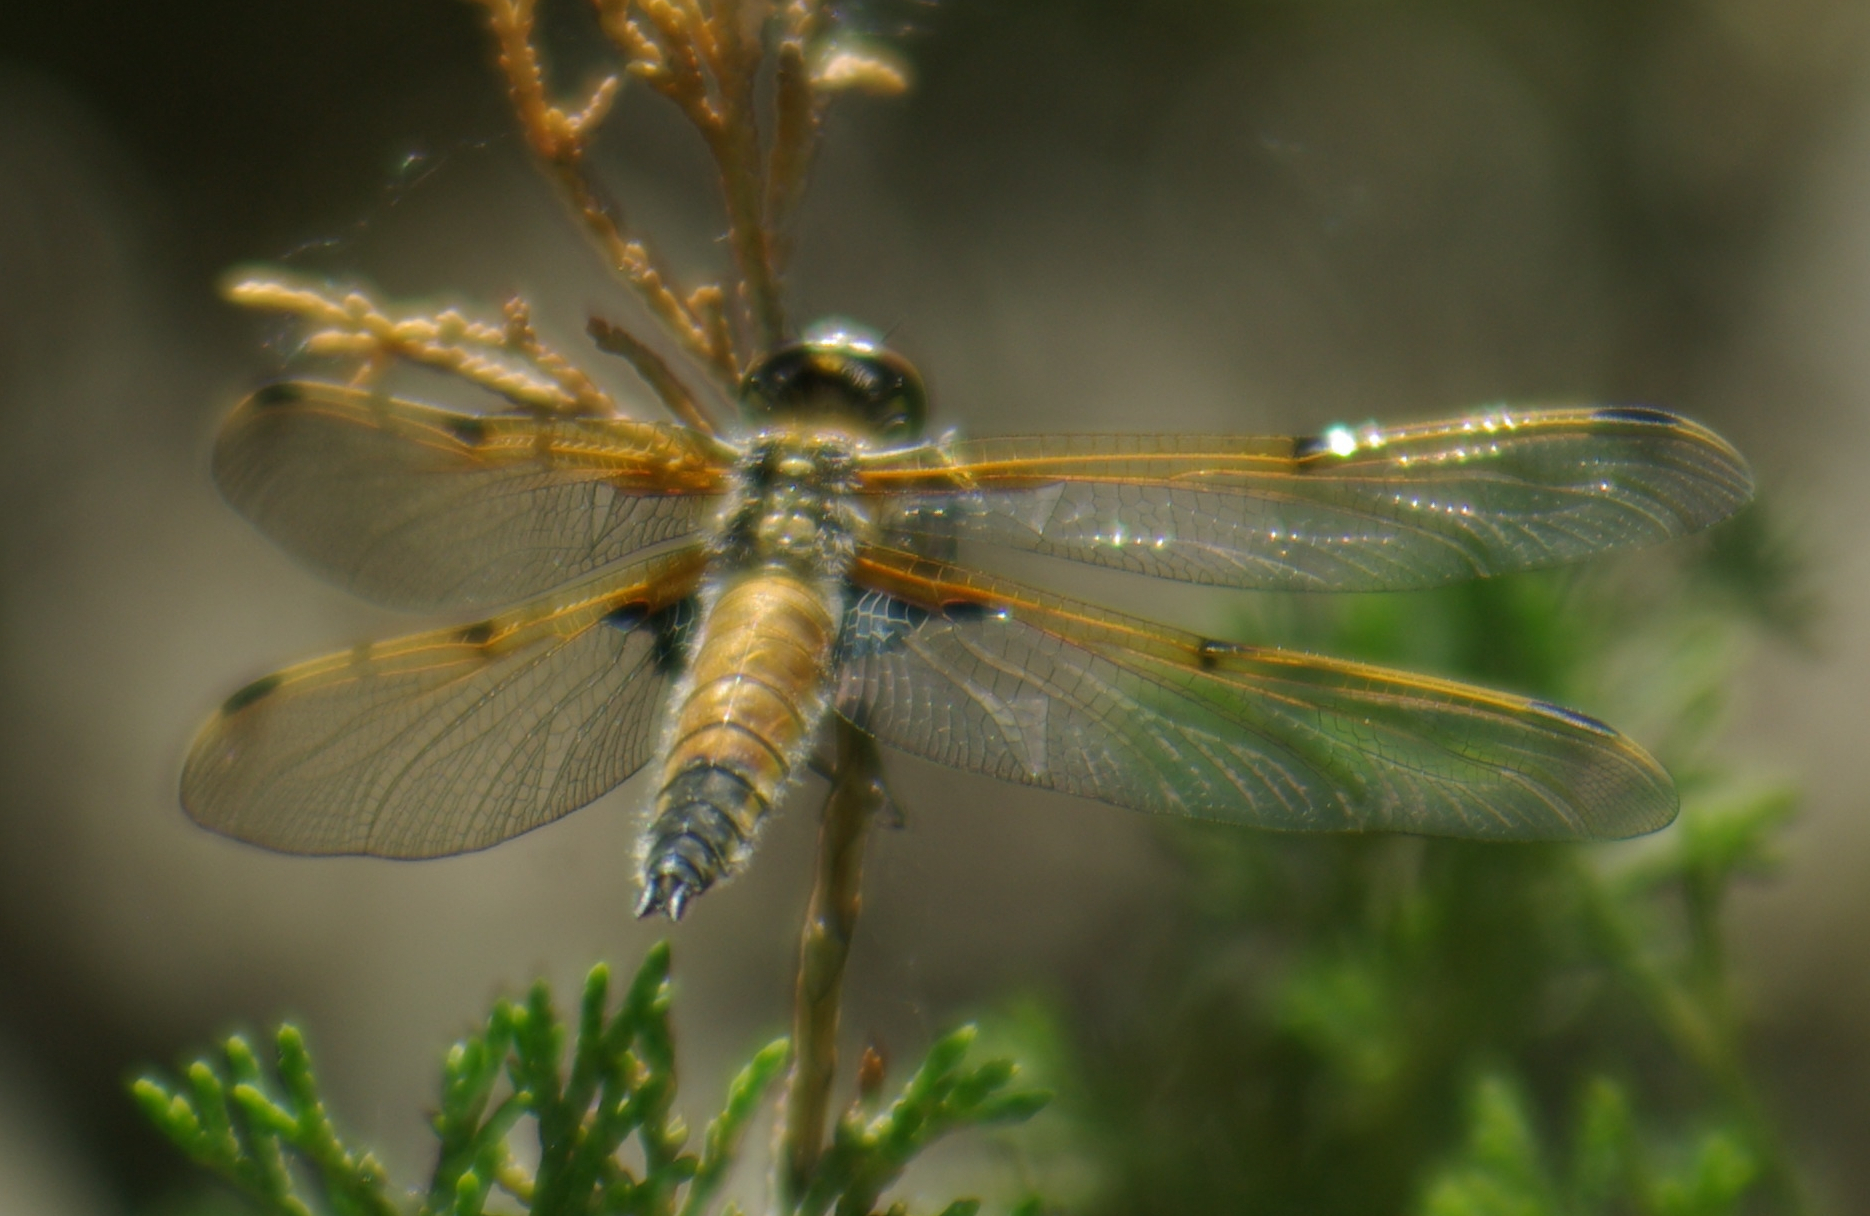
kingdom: Animalia
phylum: Arthropoda
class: Insecta
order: Odonata
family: Libellulidae
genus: Libellula
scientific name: Libellula quadrimaculata
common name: Four-spotted chaser
